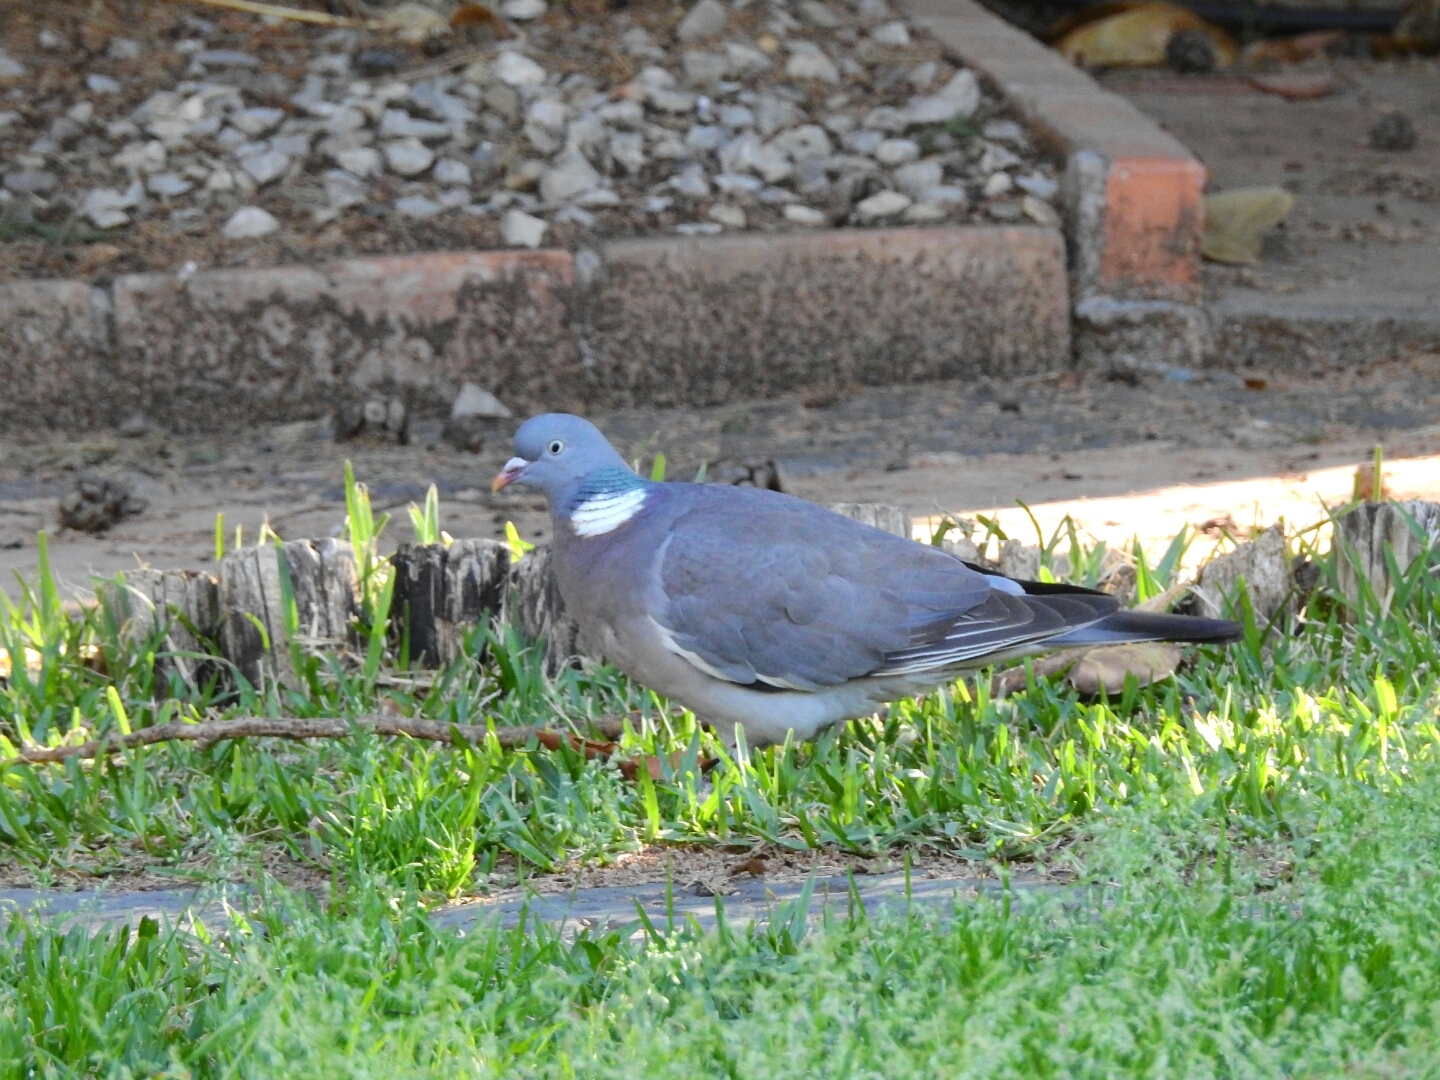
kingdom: Animalia
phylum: Chordata
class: Aves
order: Columbiformes
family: Columbidae
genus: Columba
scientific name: Columba palumbus
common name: Common wood pigeon
